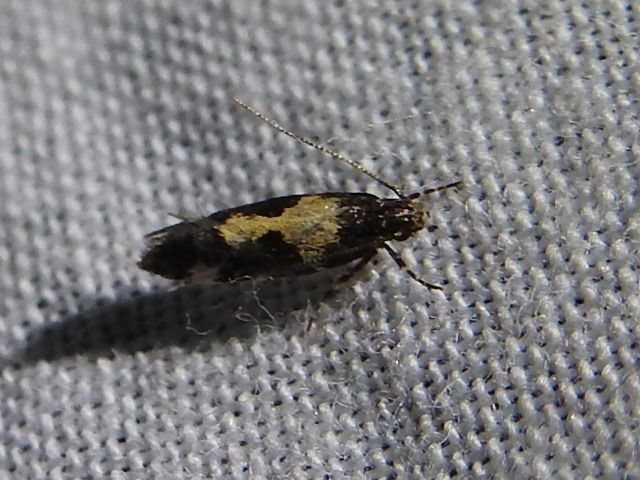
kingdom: Animalia
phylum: Arthropoda
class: Insecta
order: Lepidoptera
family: Gelechiidae
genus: Stegasta
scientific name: Stegasta bosqueella
